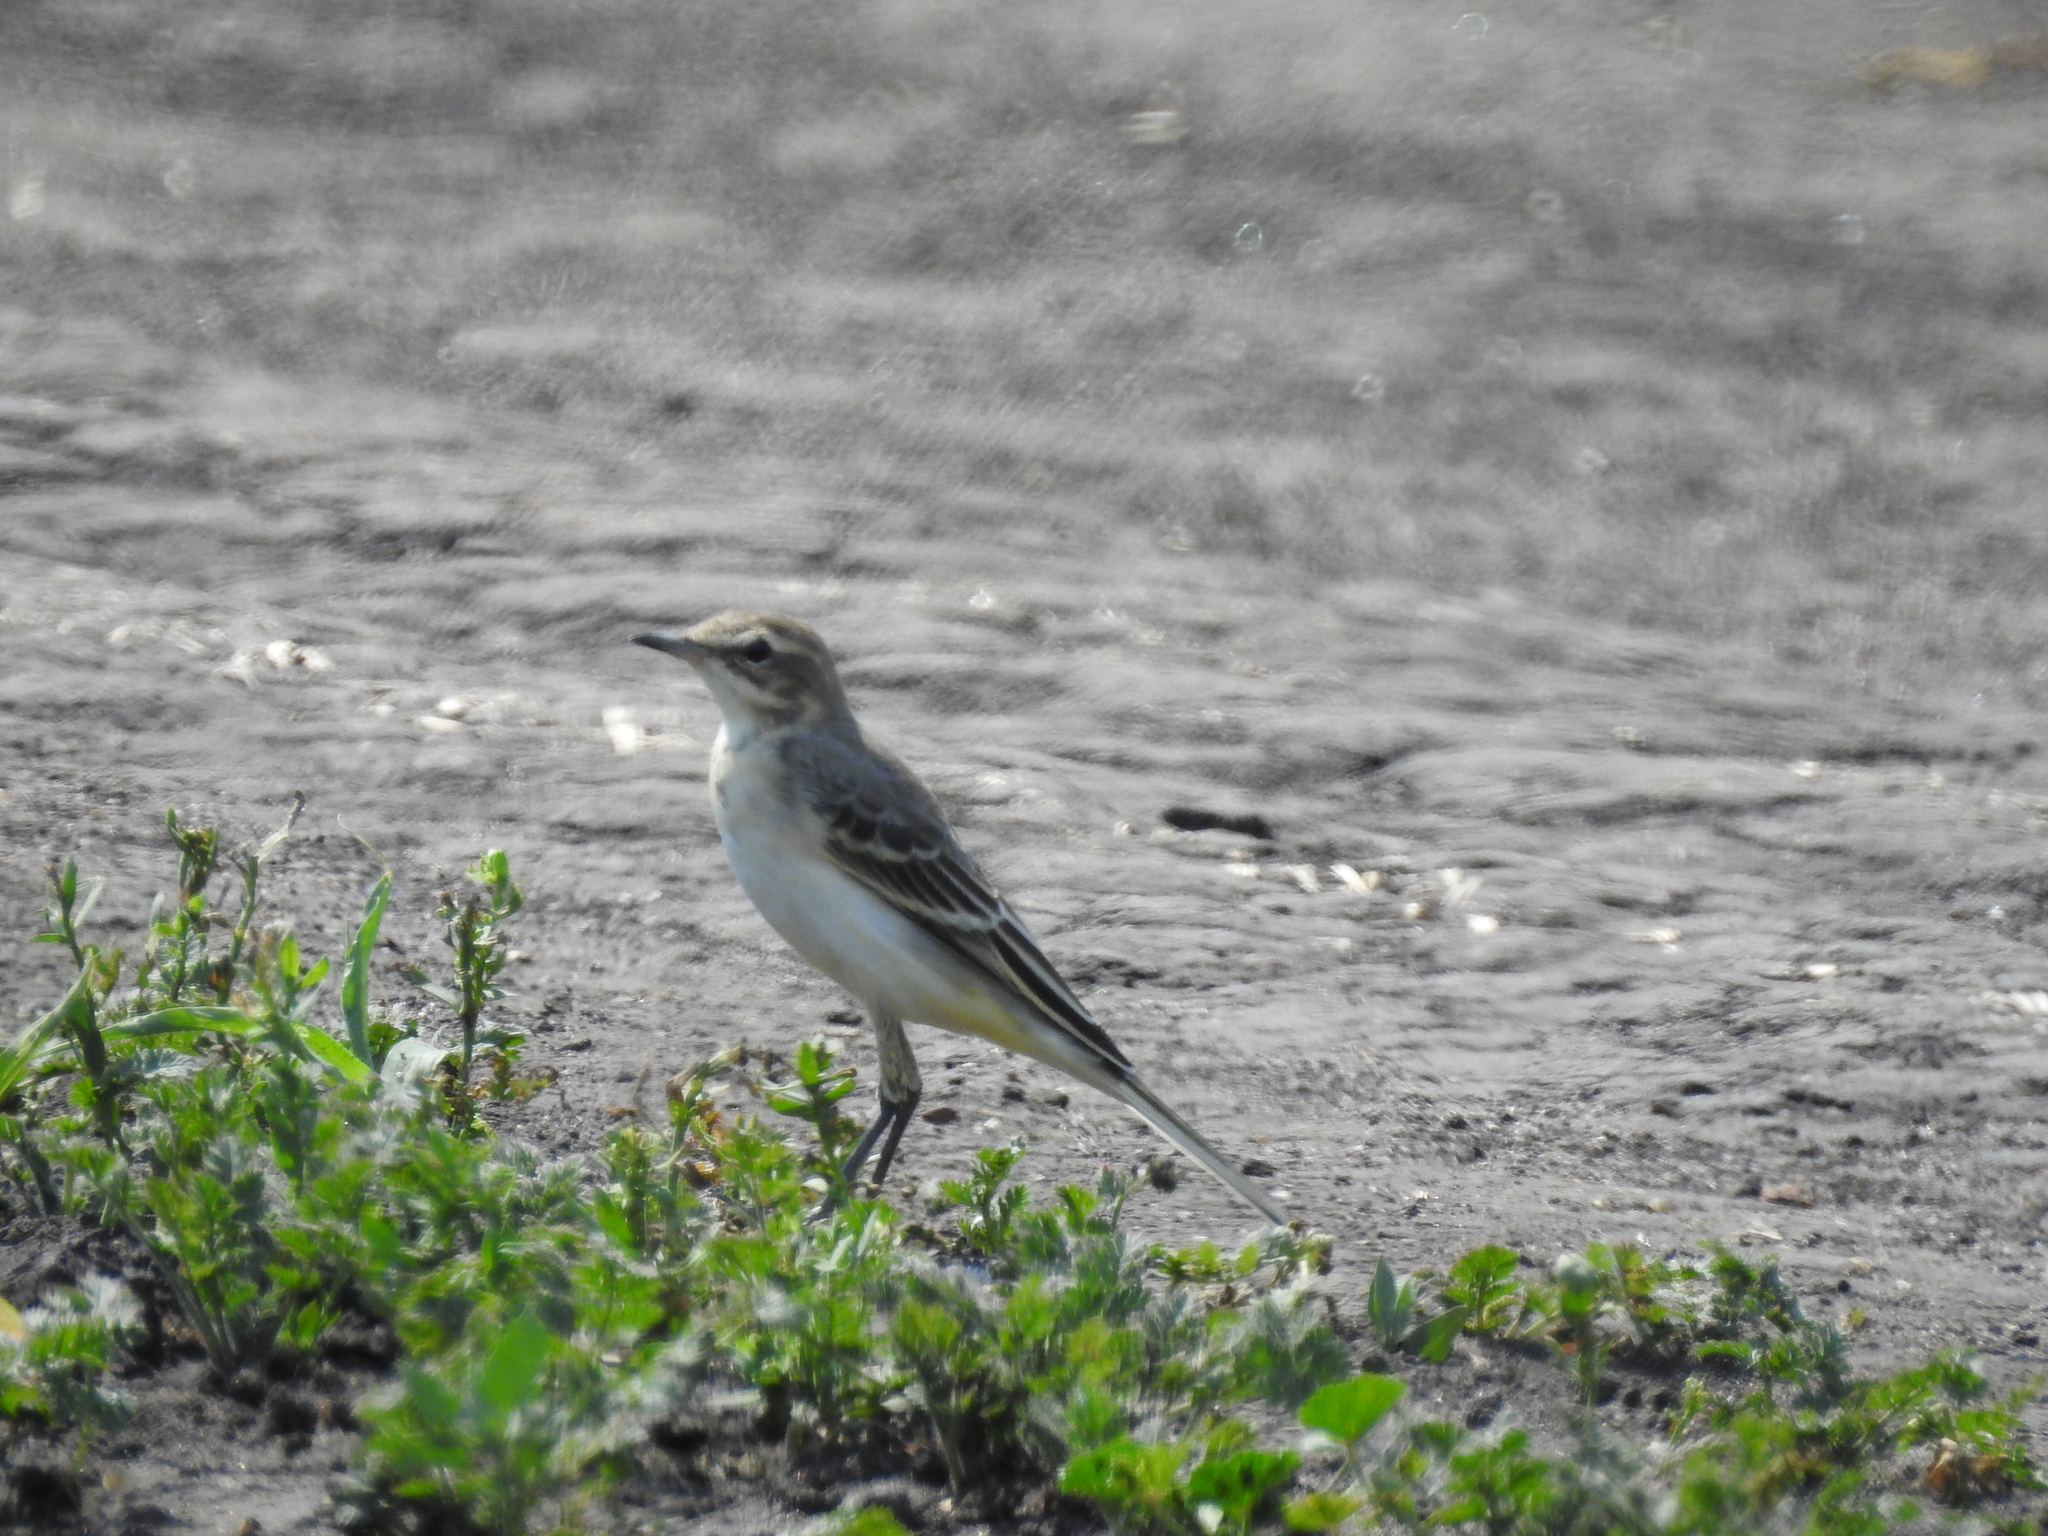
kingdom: Animalia
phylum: Chordata
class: Aves
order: Passeriformes
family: Motacillidae
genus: Motacilla
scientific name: Motacilla flava
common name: Western yellow wagtail
